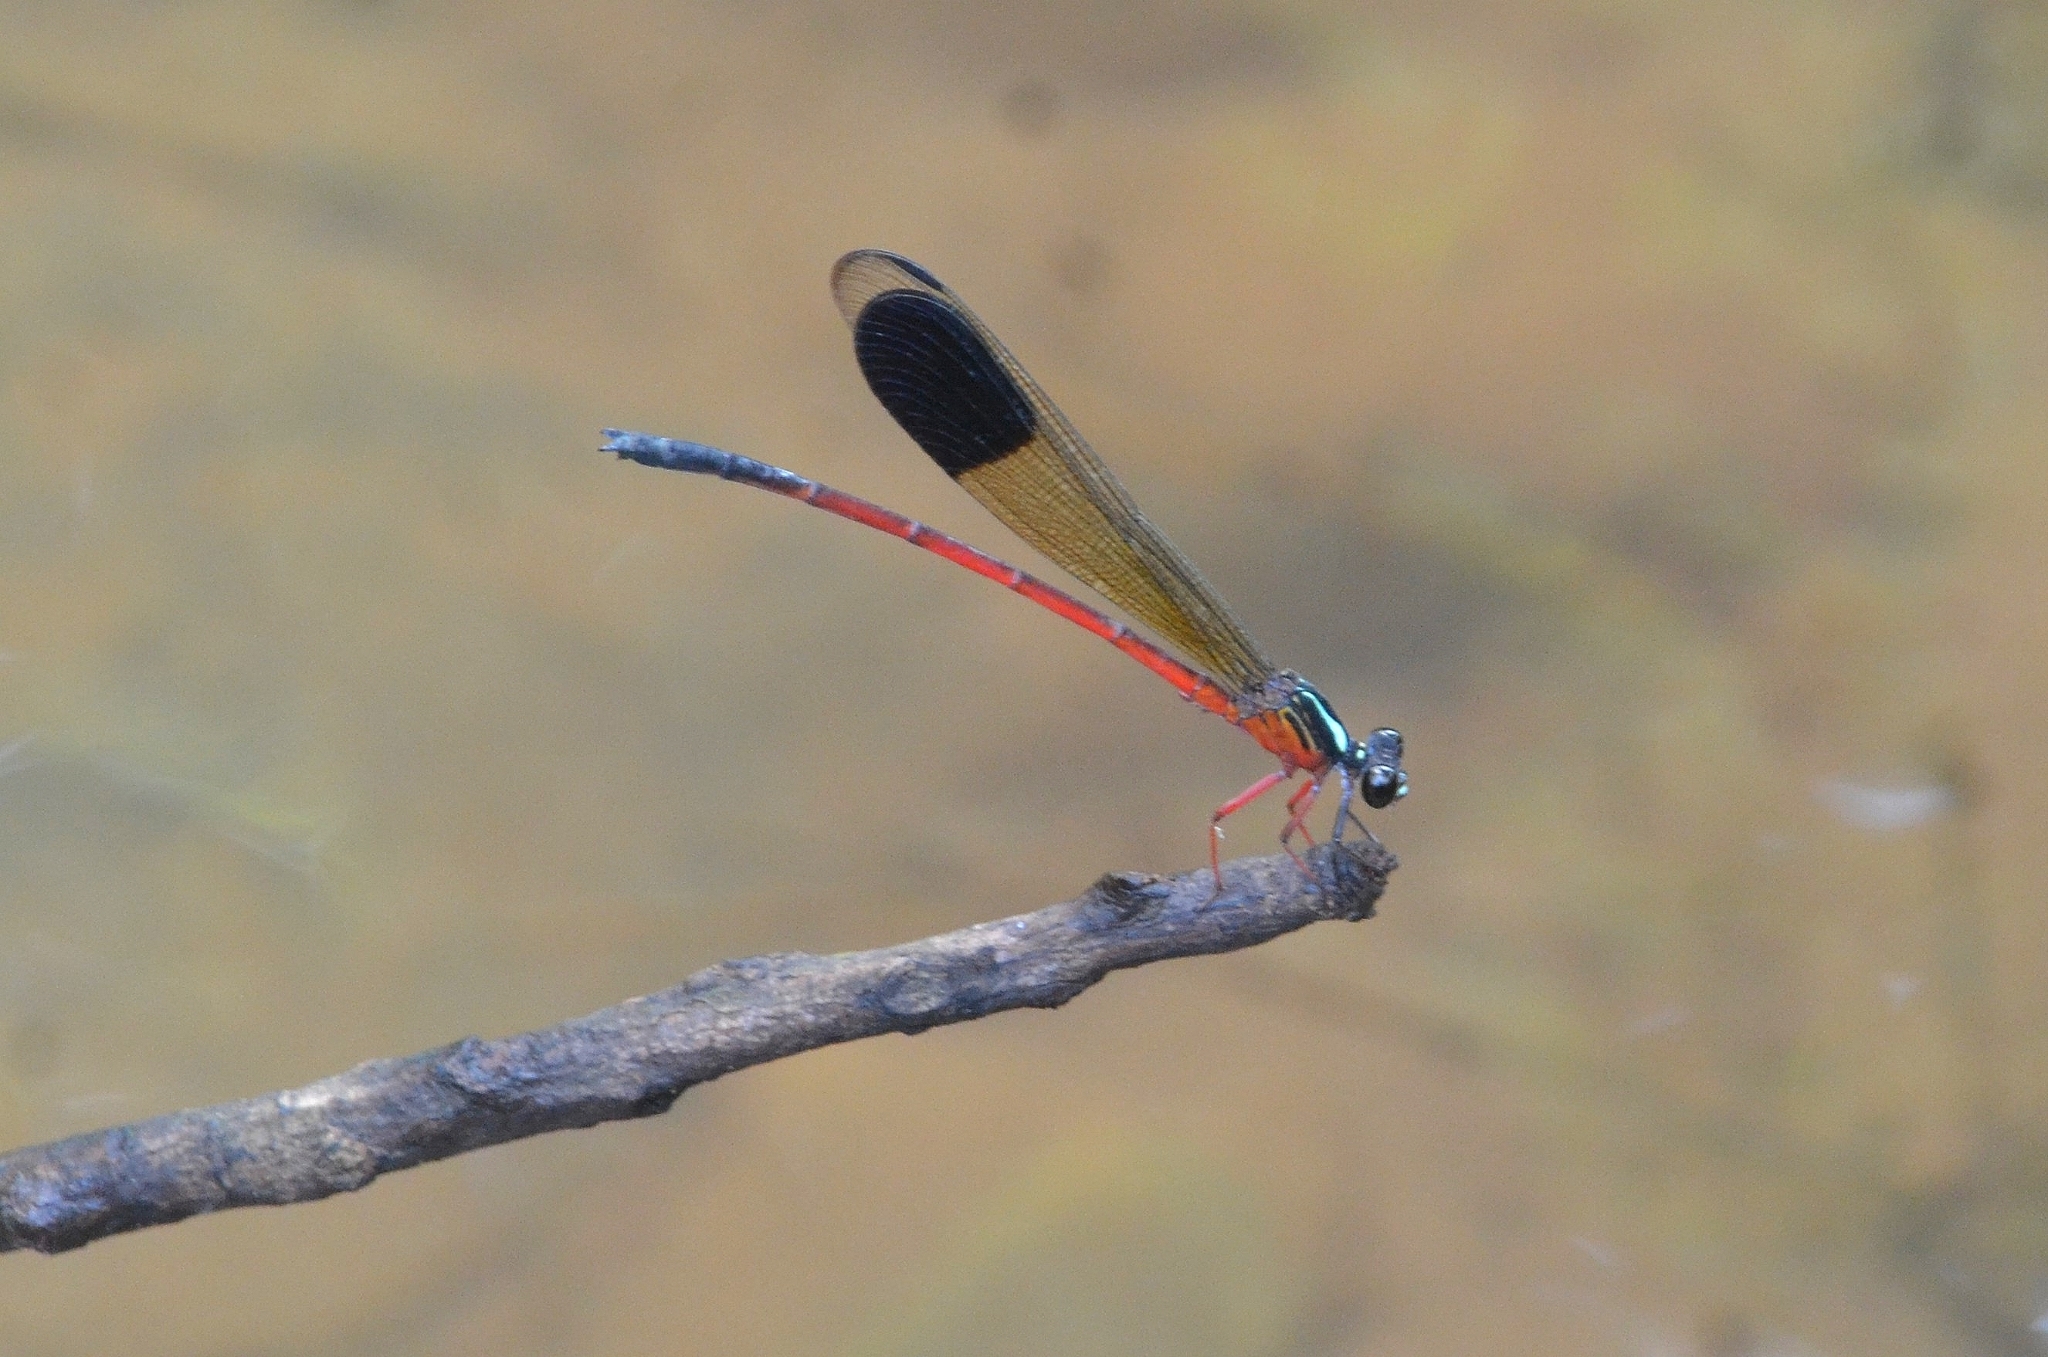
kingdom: Animalia
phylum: Arthropoda
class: Insecta
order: Odonata
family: Euphaeidae
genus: Euphaea
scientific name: Euphaea fraseri
